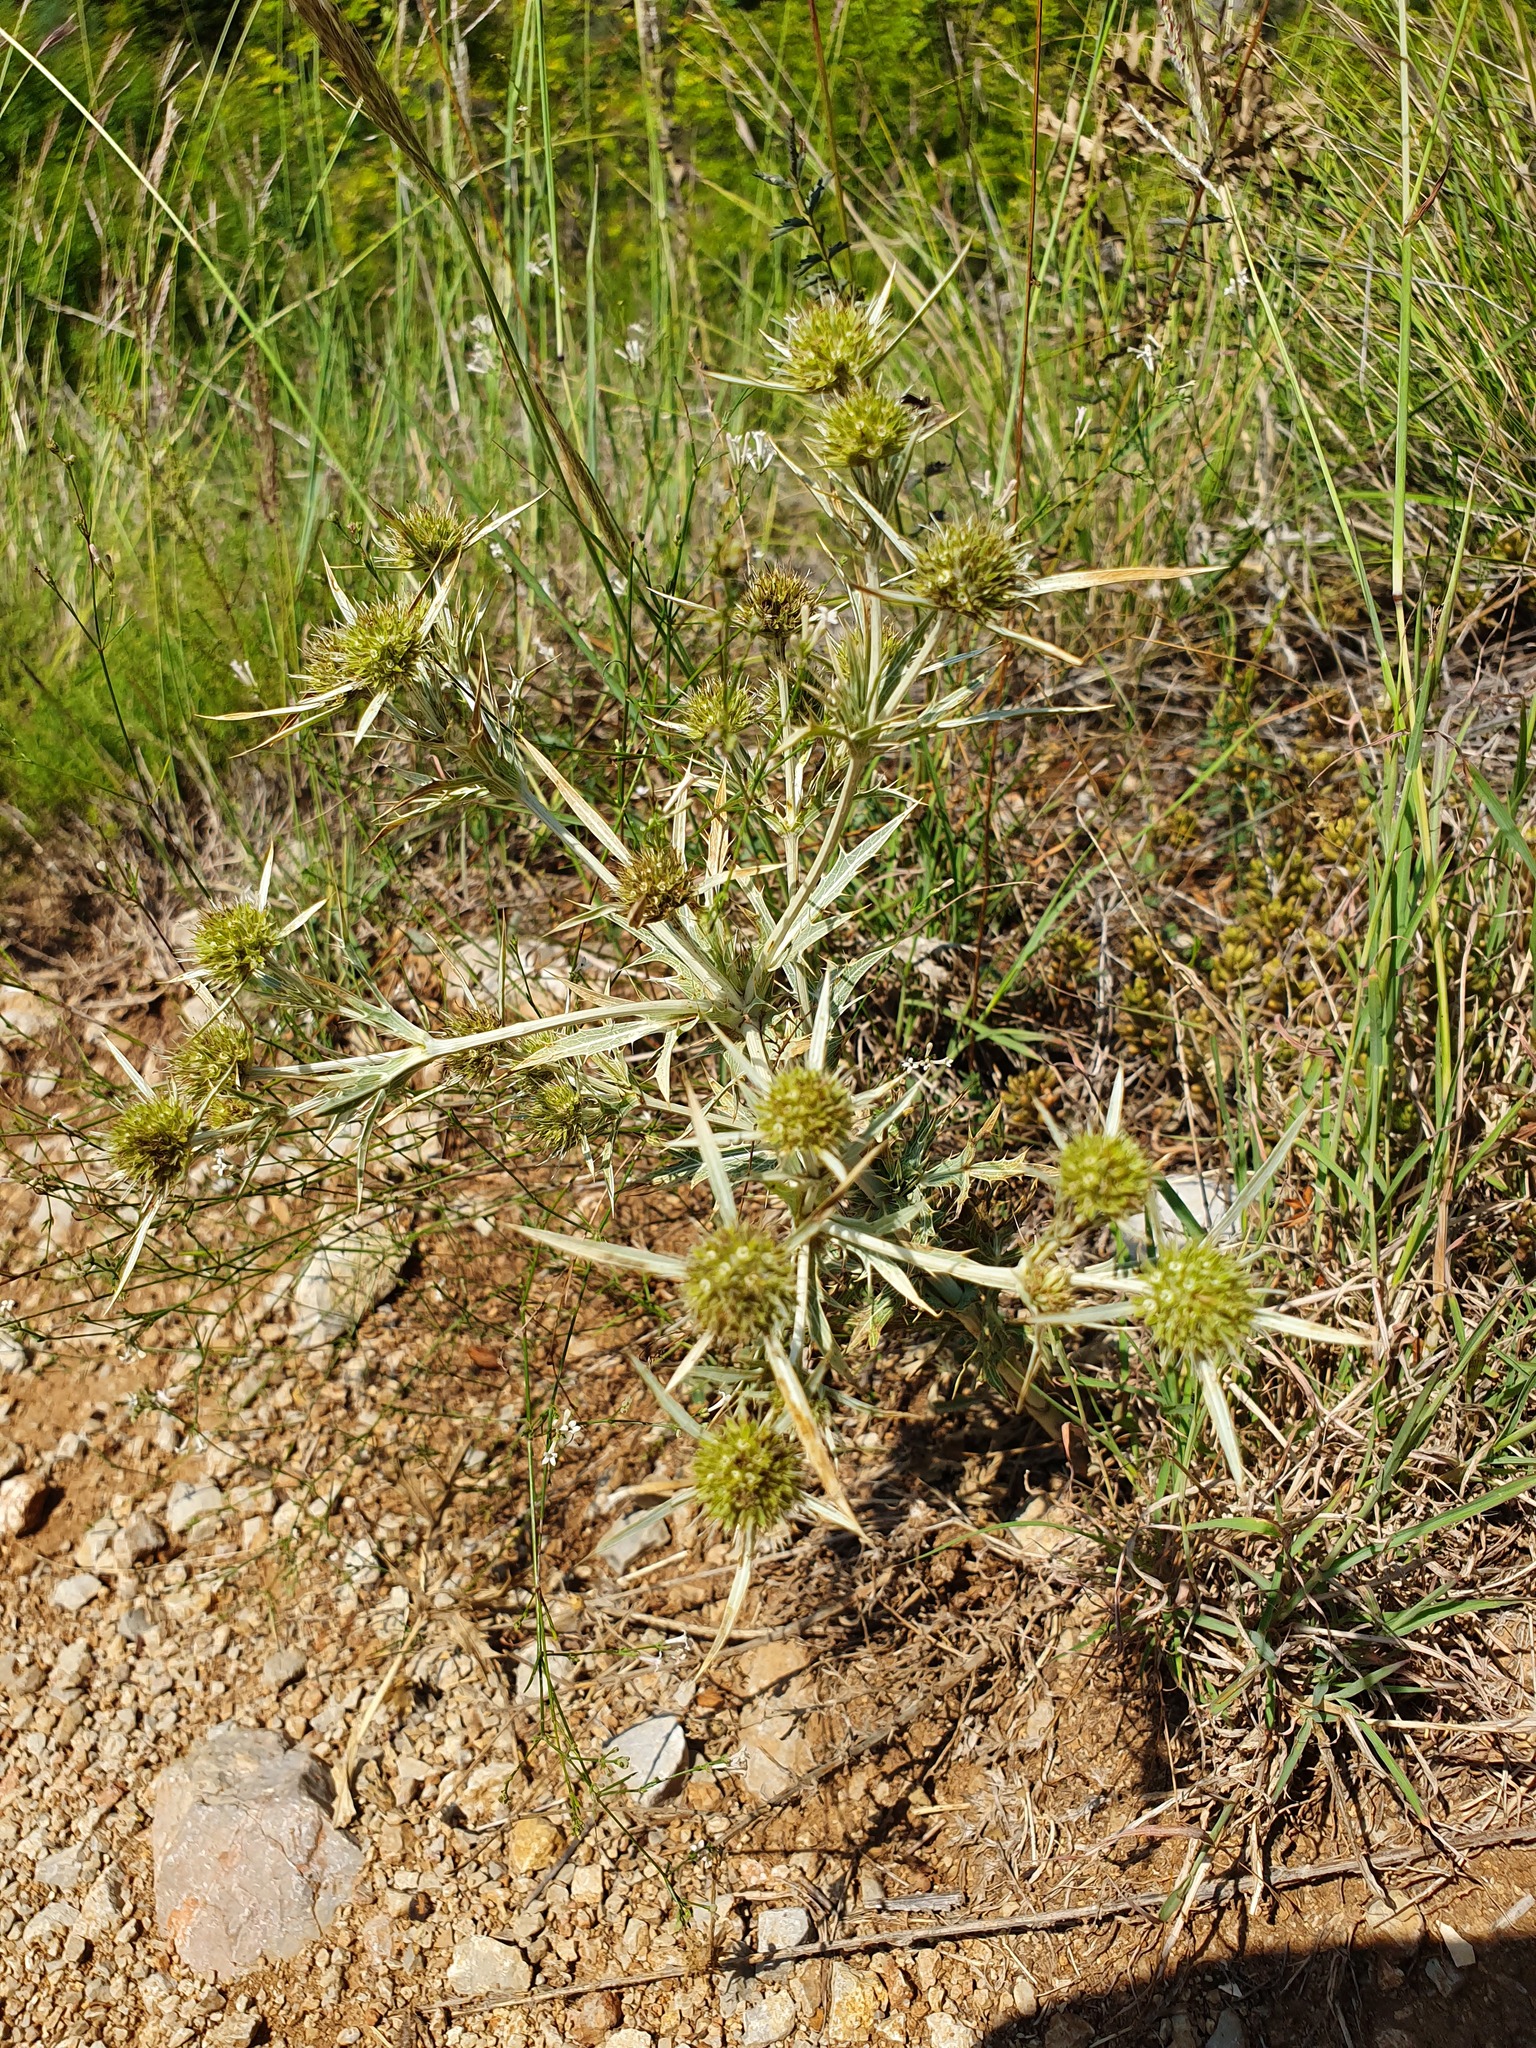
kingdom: Plantae
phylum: Tracheophyta
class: Magnoliopsida
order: Apiales
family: Apiaceae
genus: Eryngium
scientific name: Eryngium campestre
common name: Field eryngo
